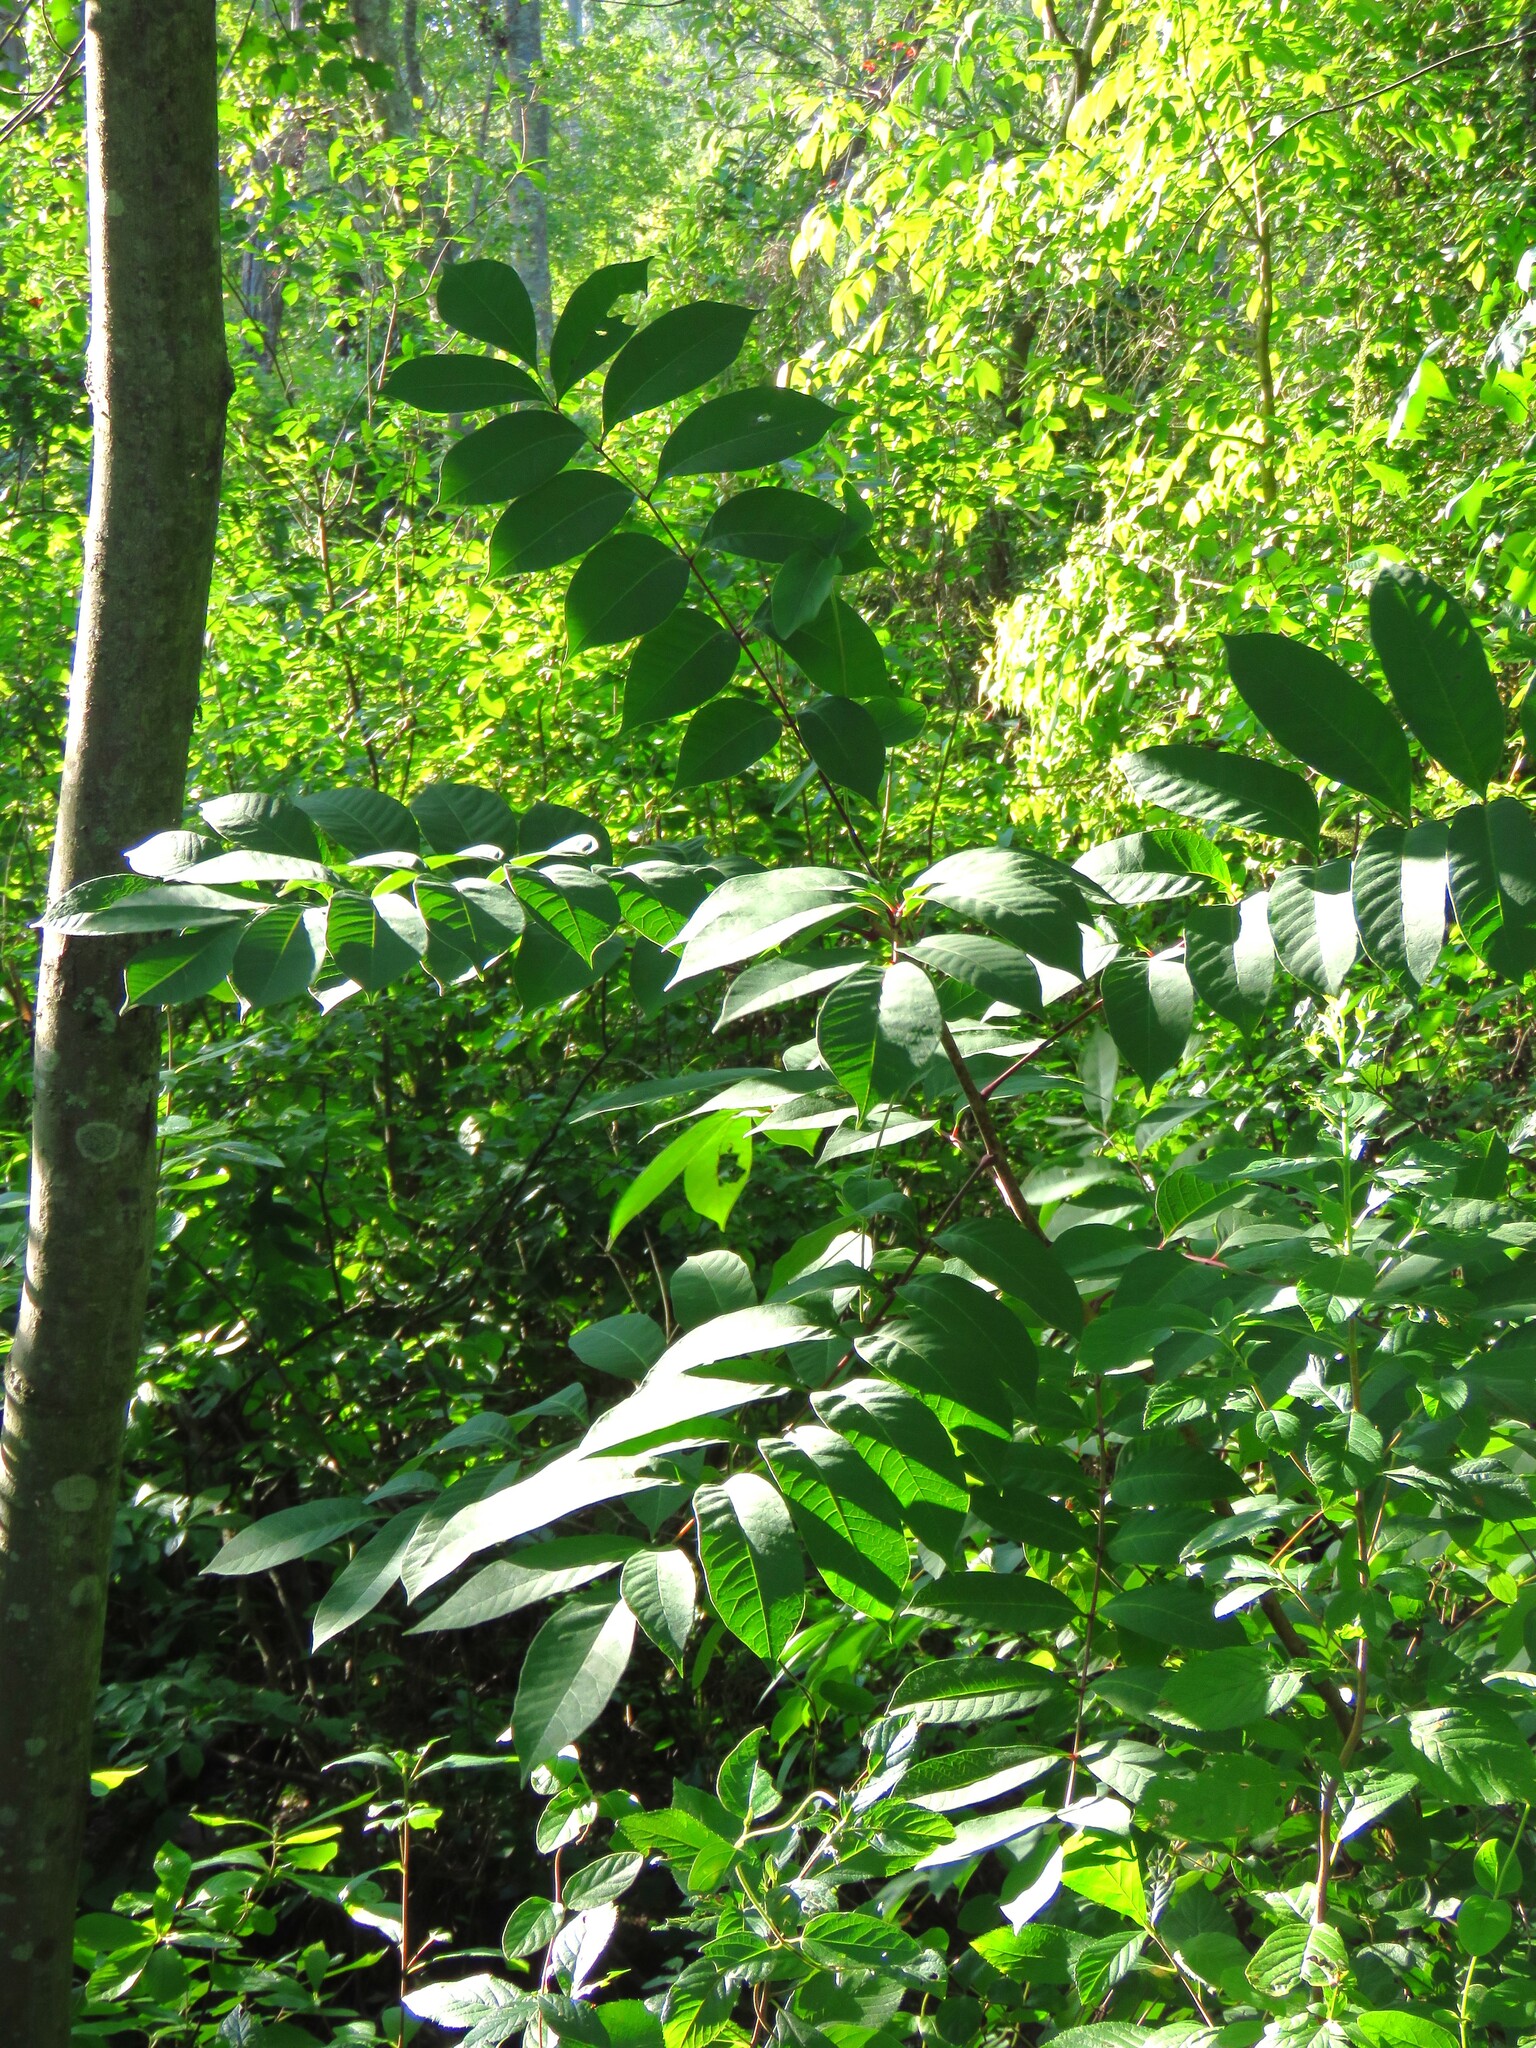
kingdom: Plantae
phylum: Tracheophyta
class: Magnoliopsida
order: Sapindales
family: Anacardiaceae
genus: Toxicodendron
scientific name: Toxicodendron vernix
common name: Poison sumac
